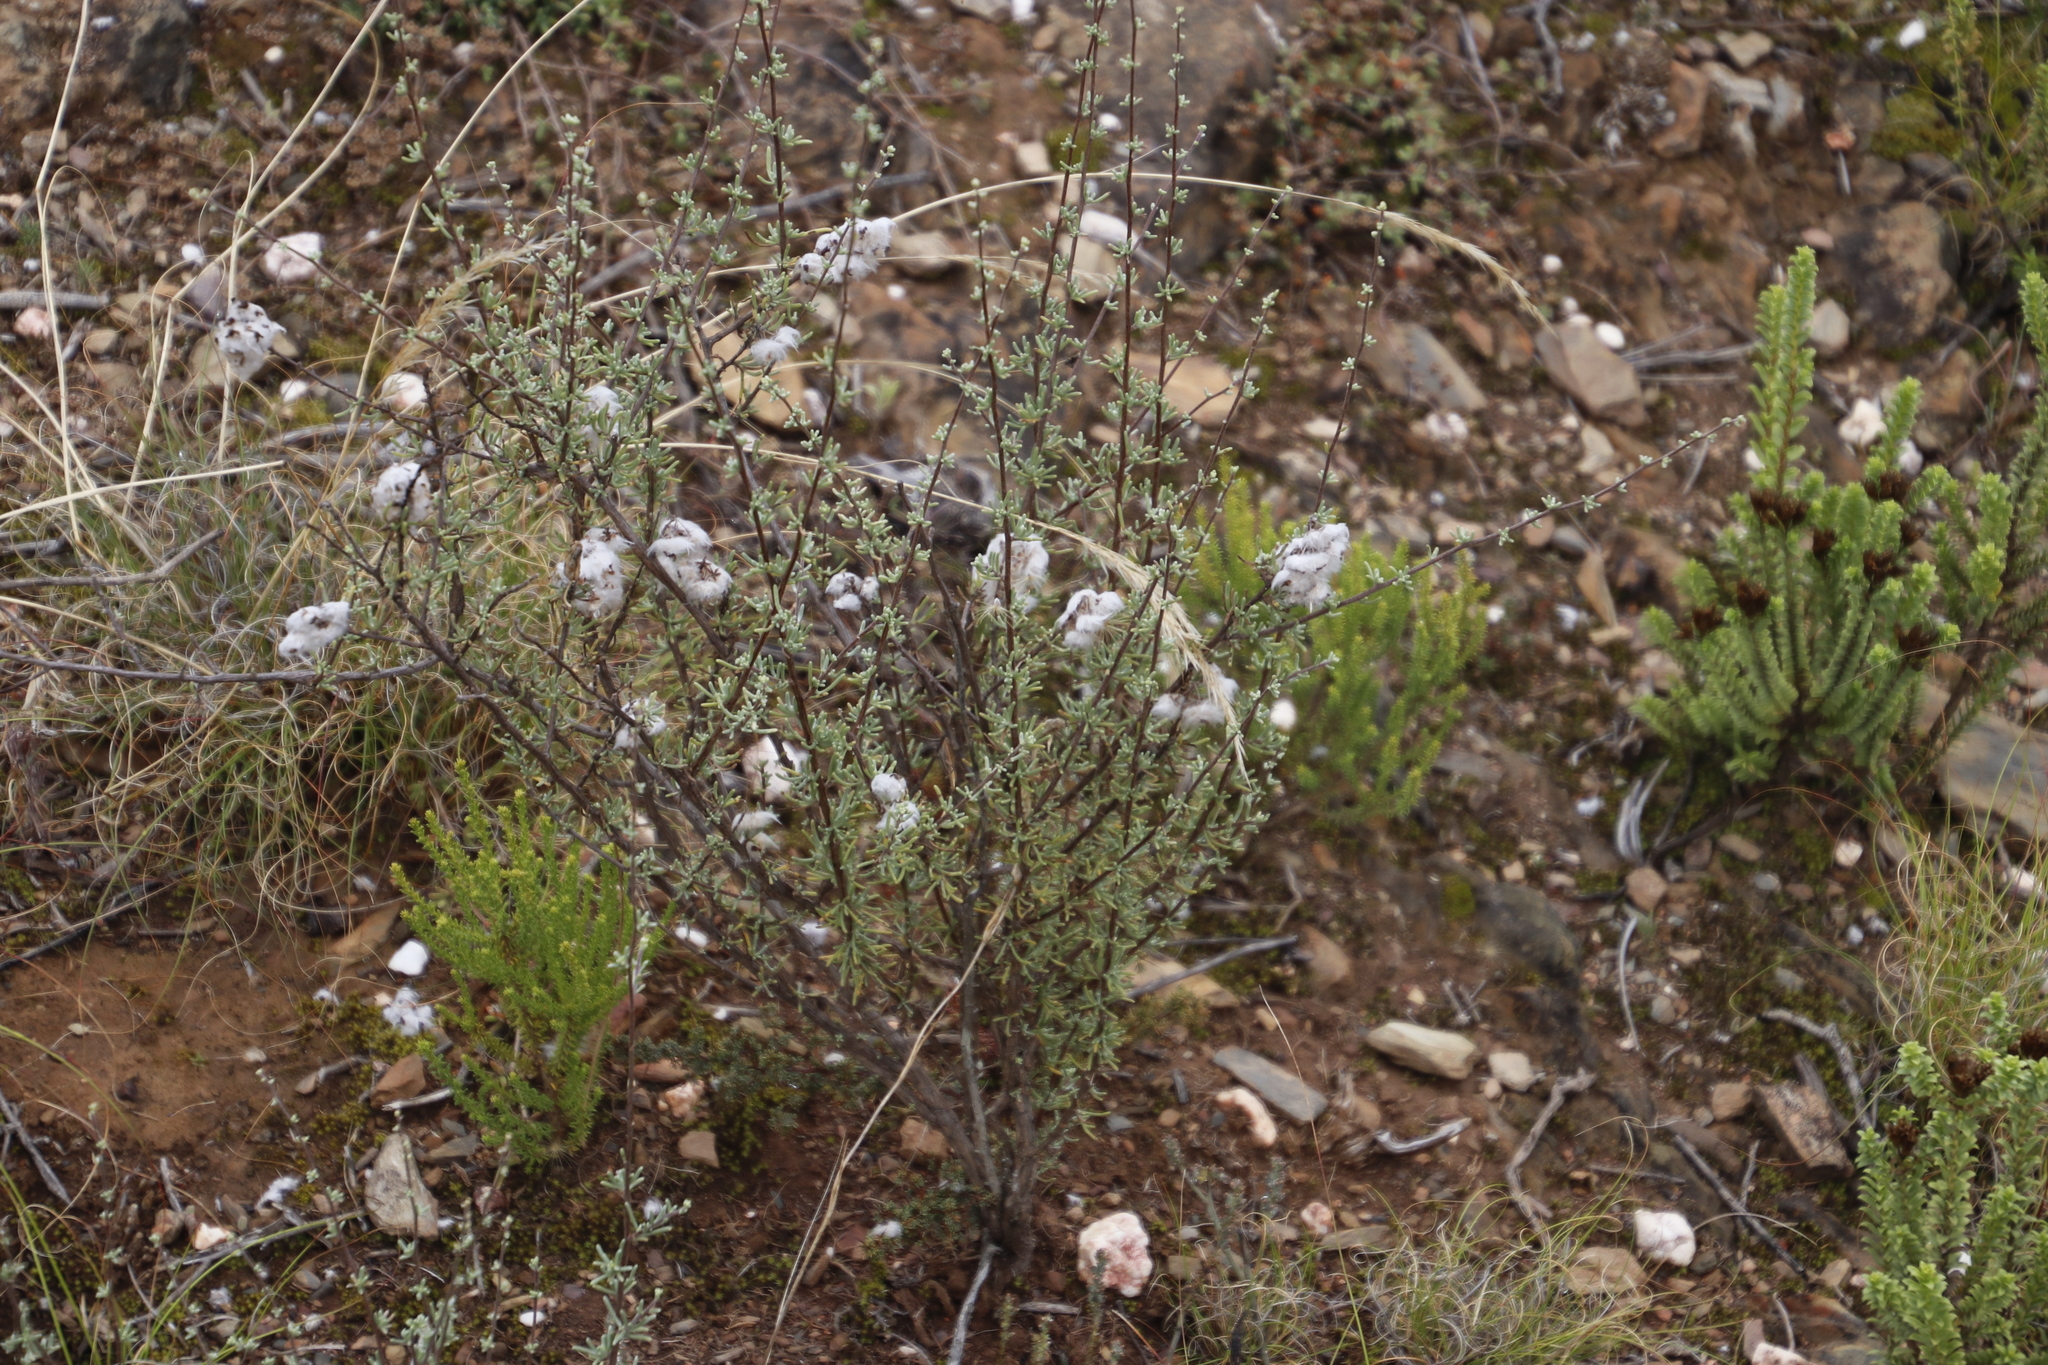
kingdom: Plantae
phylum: Tracheophyta
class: Magnoliopsida
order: Asterales
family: Asteraceae
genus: Eriocephalus
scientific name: Eriocephalus africanus
